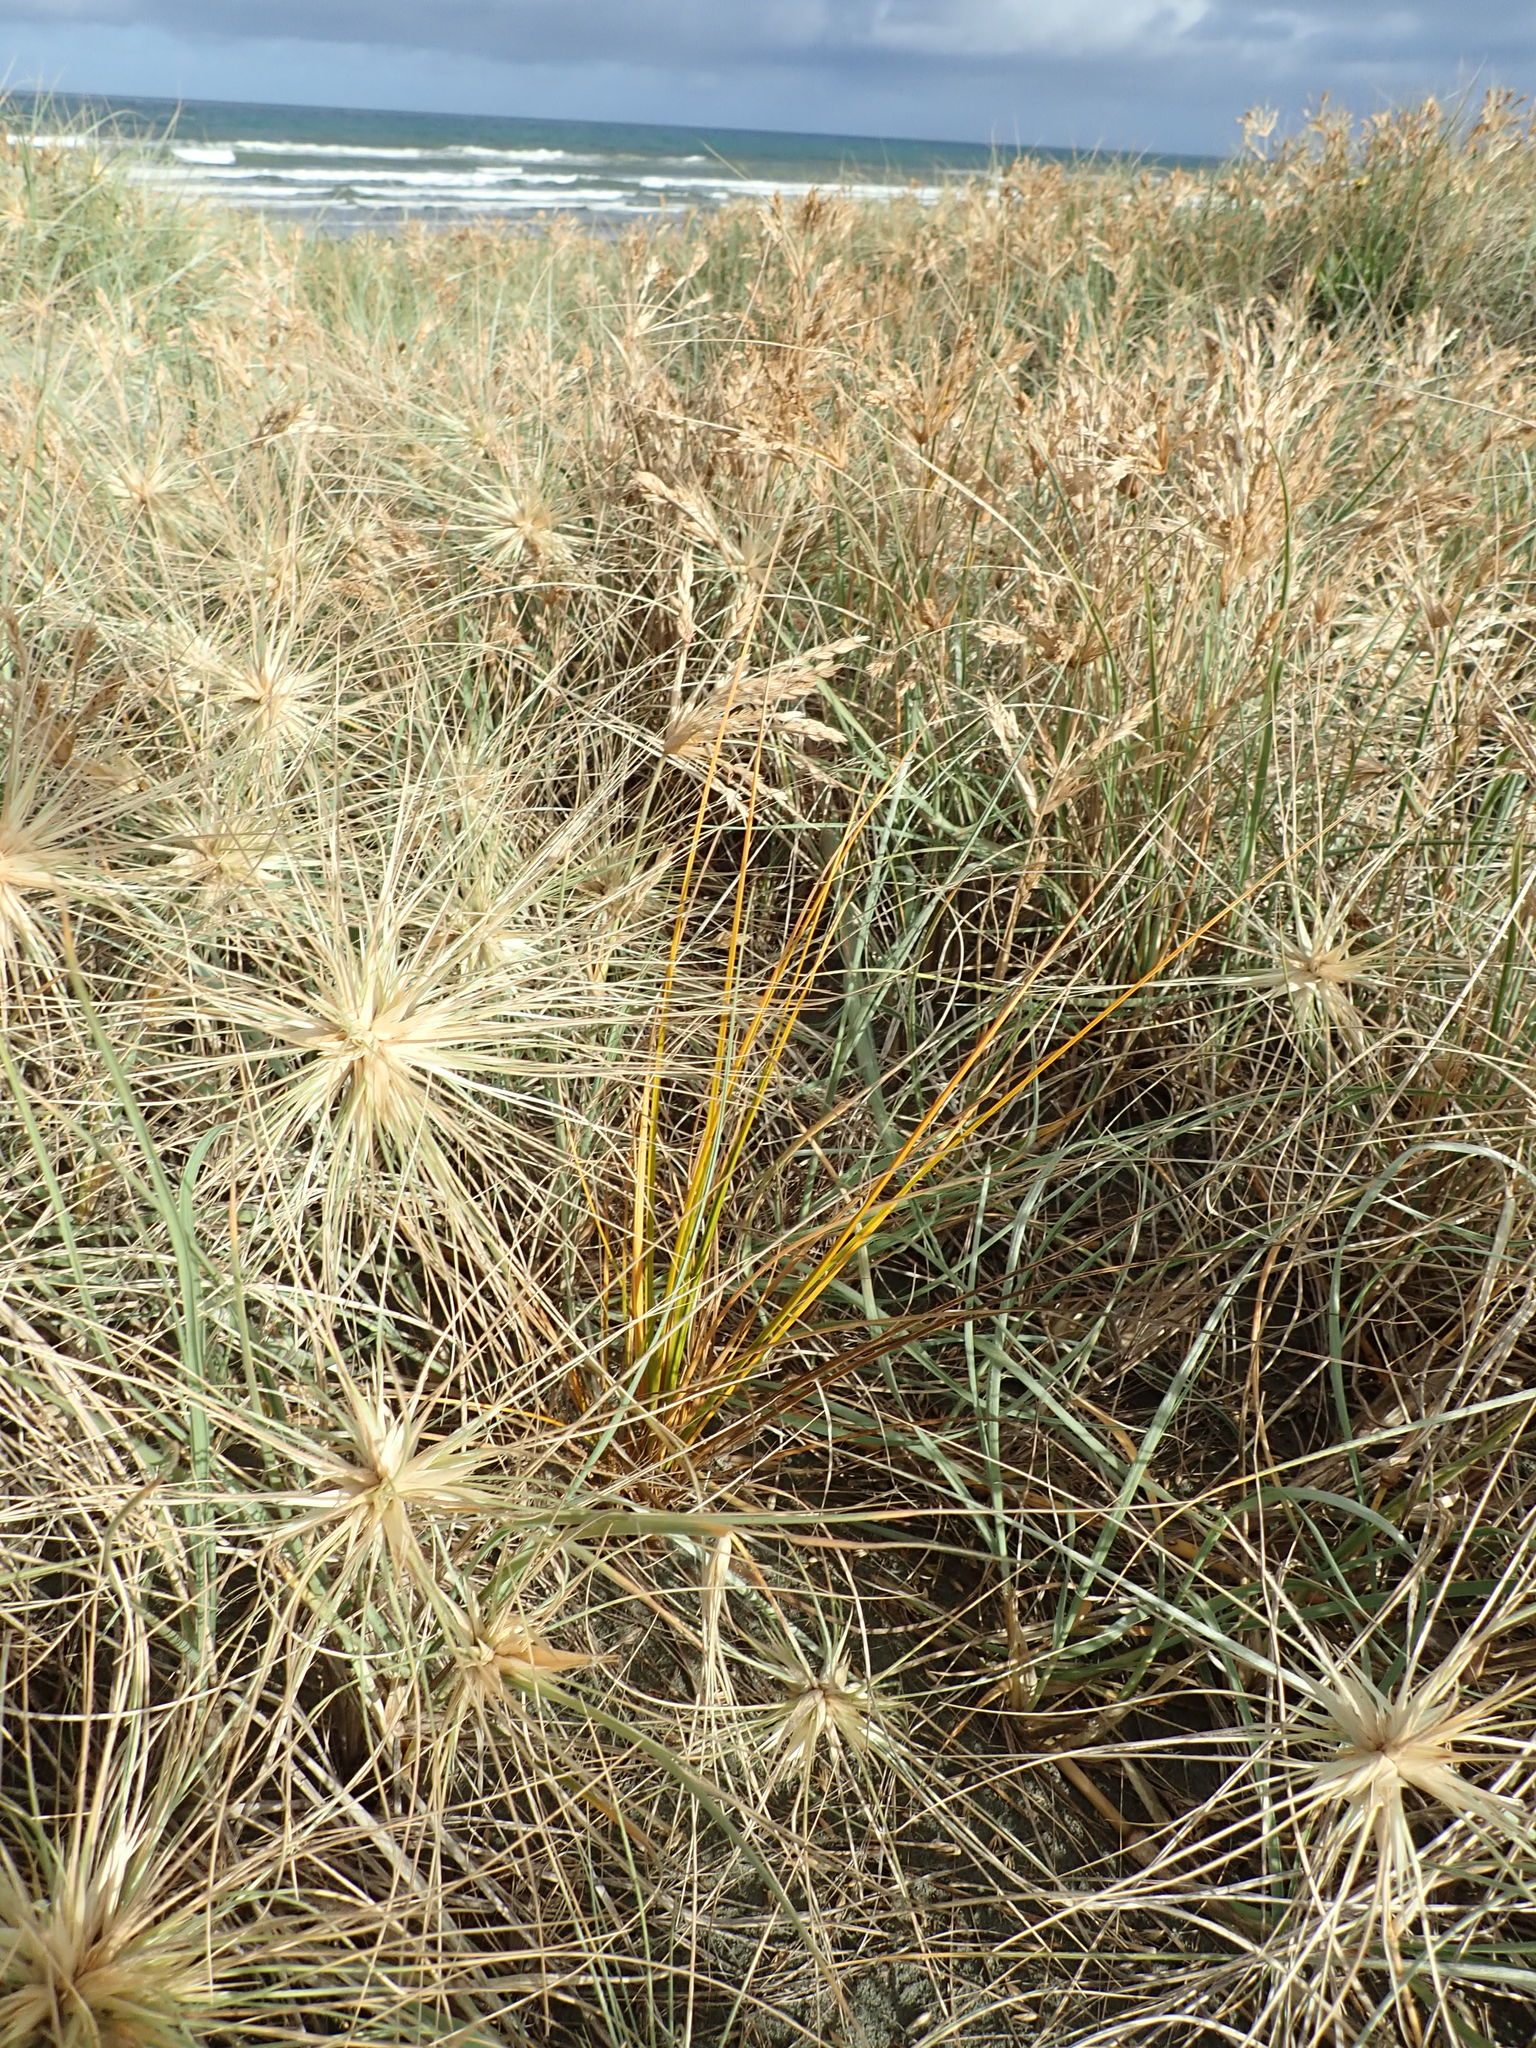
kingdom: Plantae
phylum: Tracheophyta
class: Liliopsida
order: Poales
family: Cyperaceae
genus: Ficinia
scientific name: Ficinia spiralis
